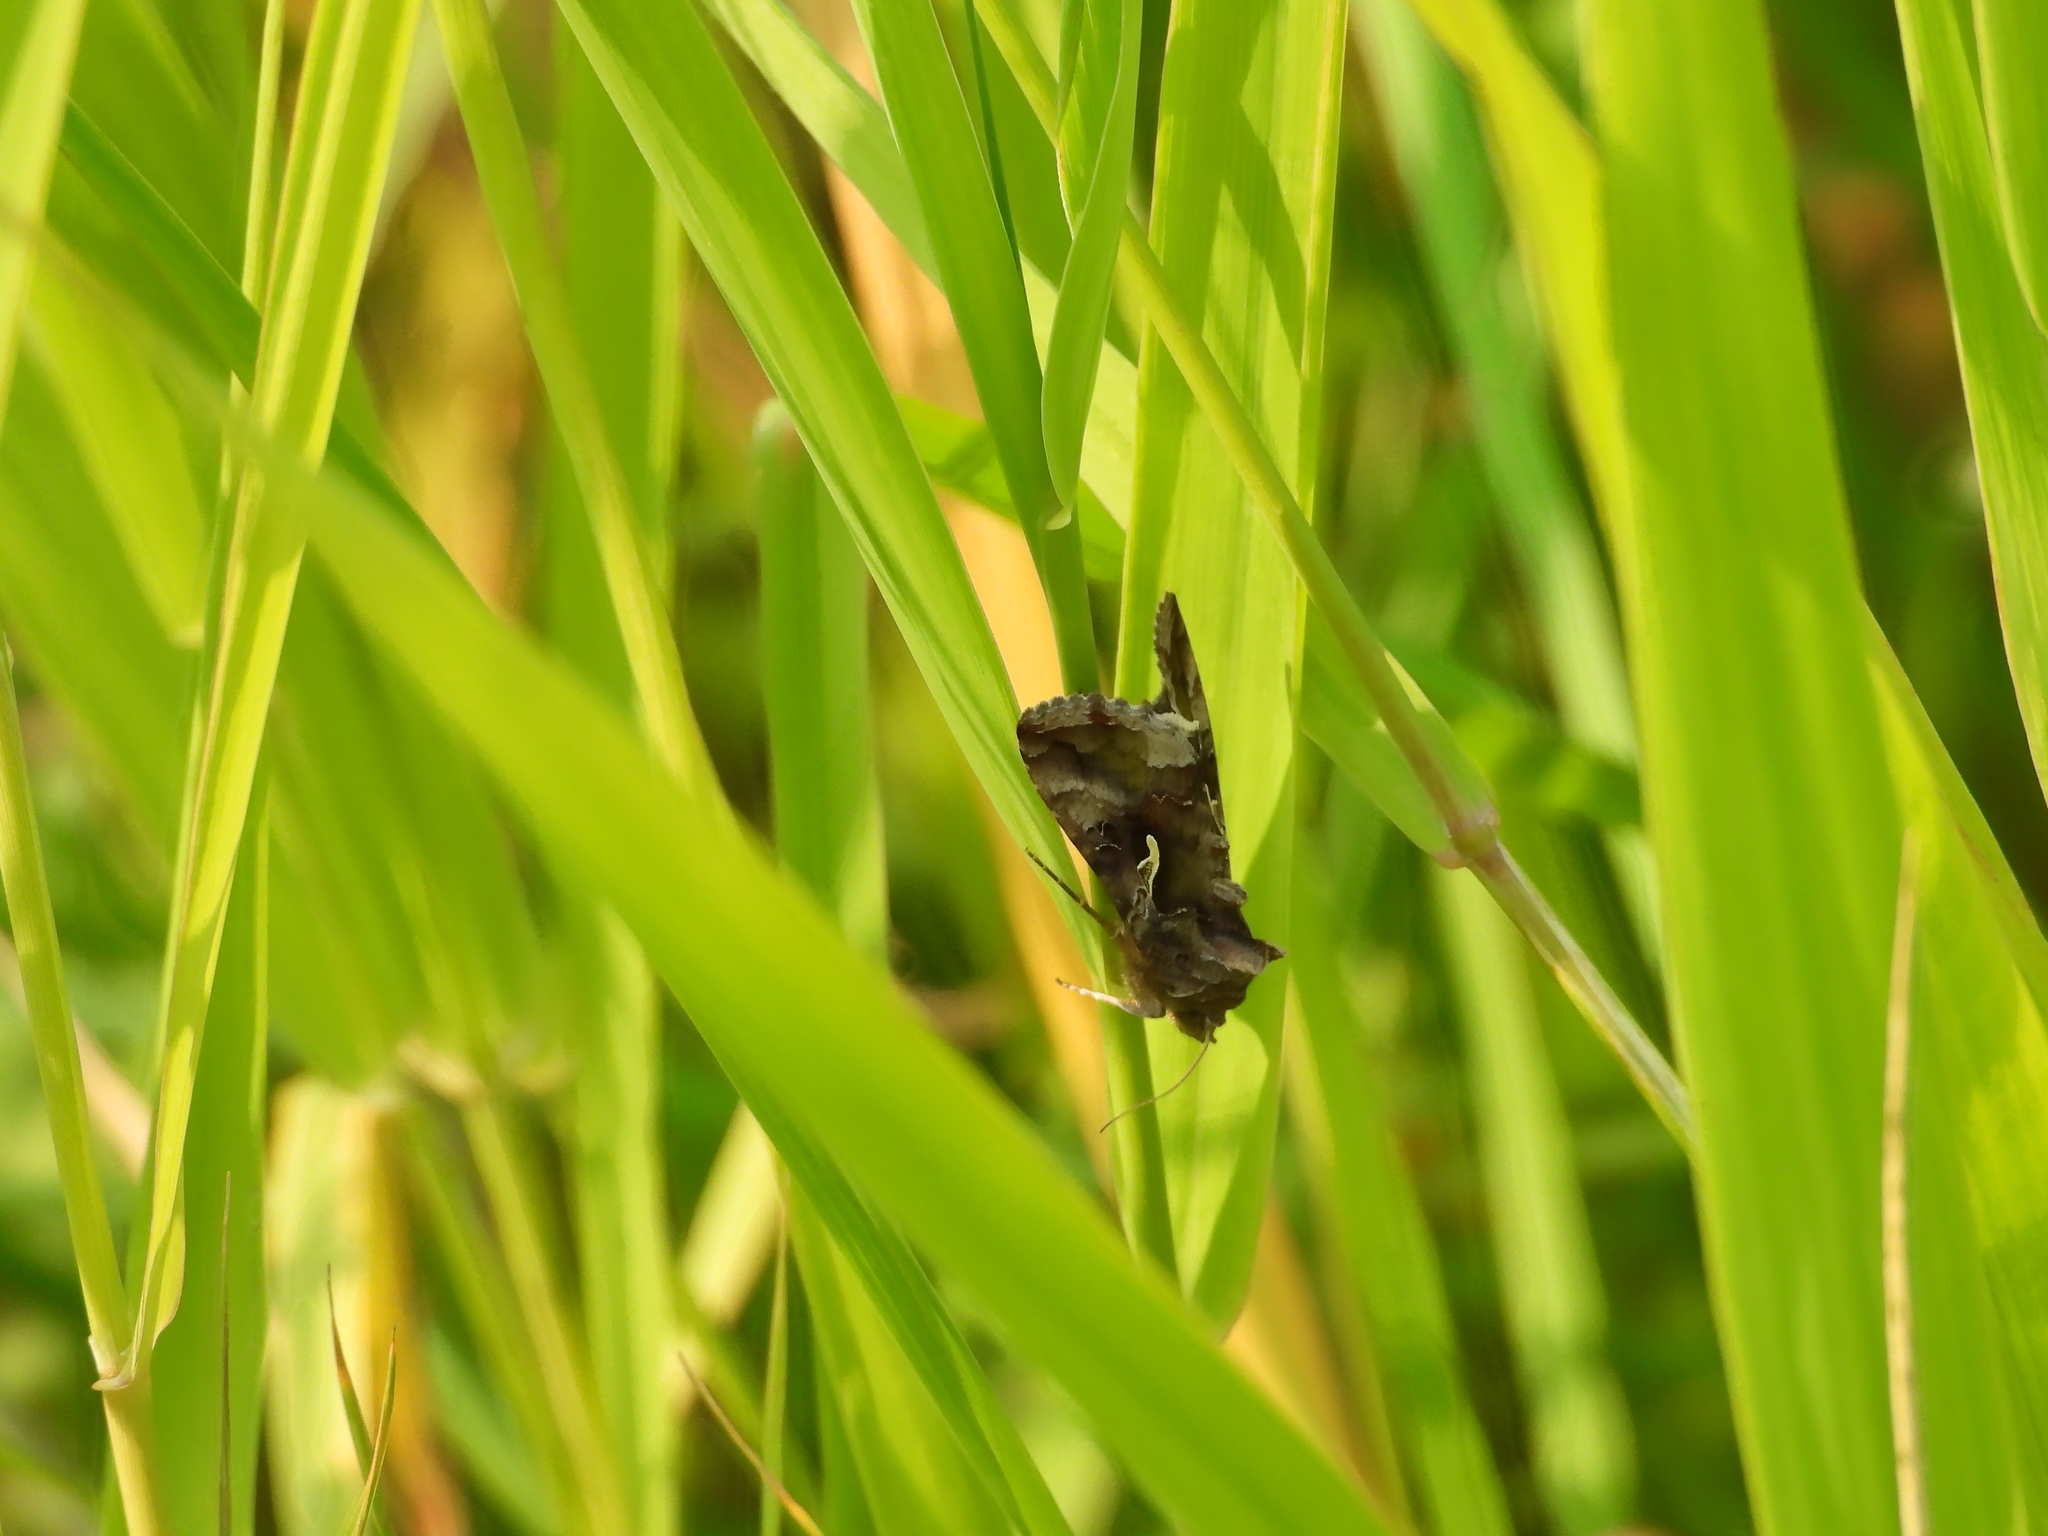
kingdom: Animalia
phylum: Arthropoda
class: Insecta
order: Lepidoptera
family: Noctuidae
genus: Autographa
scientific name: Autographa gamma
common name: Silver y
